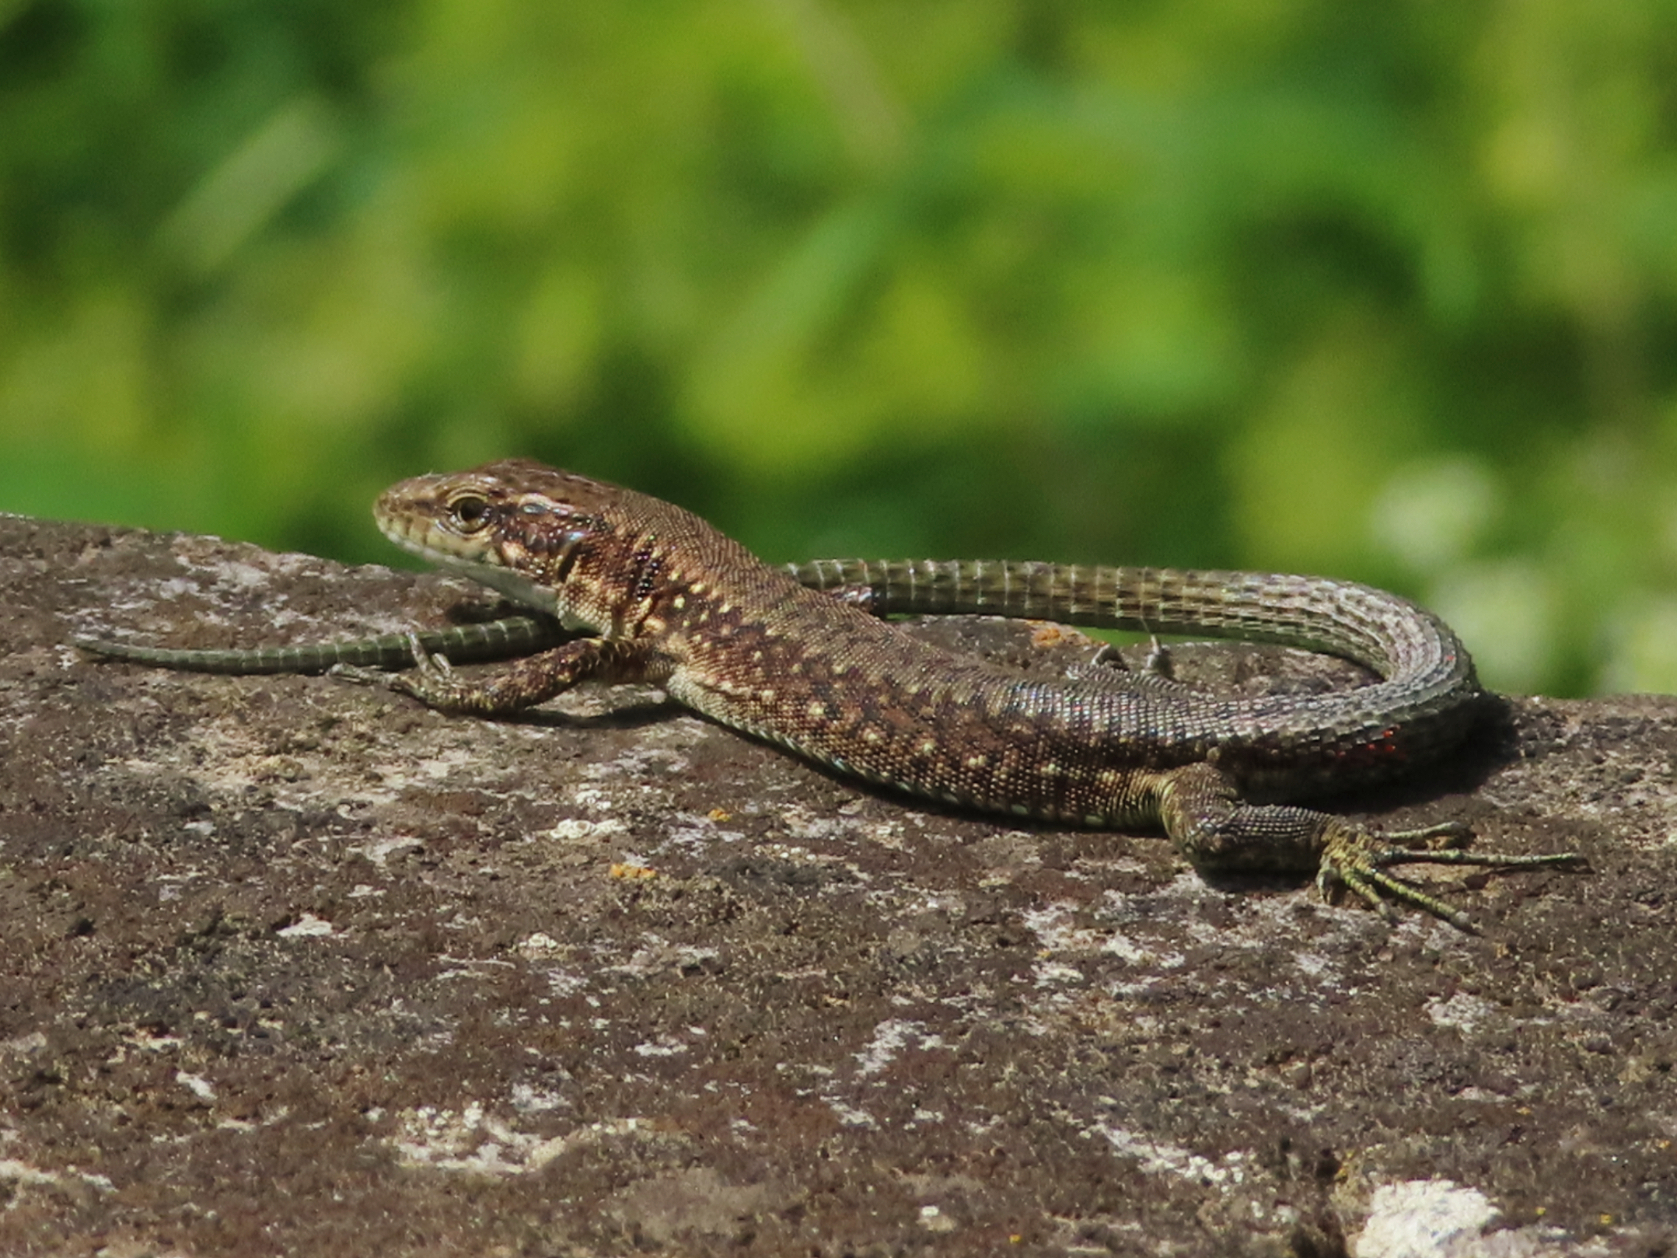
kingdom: Animalia
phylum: Chordata
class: Squamata
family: Lacertidae
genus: Darevskia
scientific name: Darevskia armeniaca
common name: Armenian lizard
